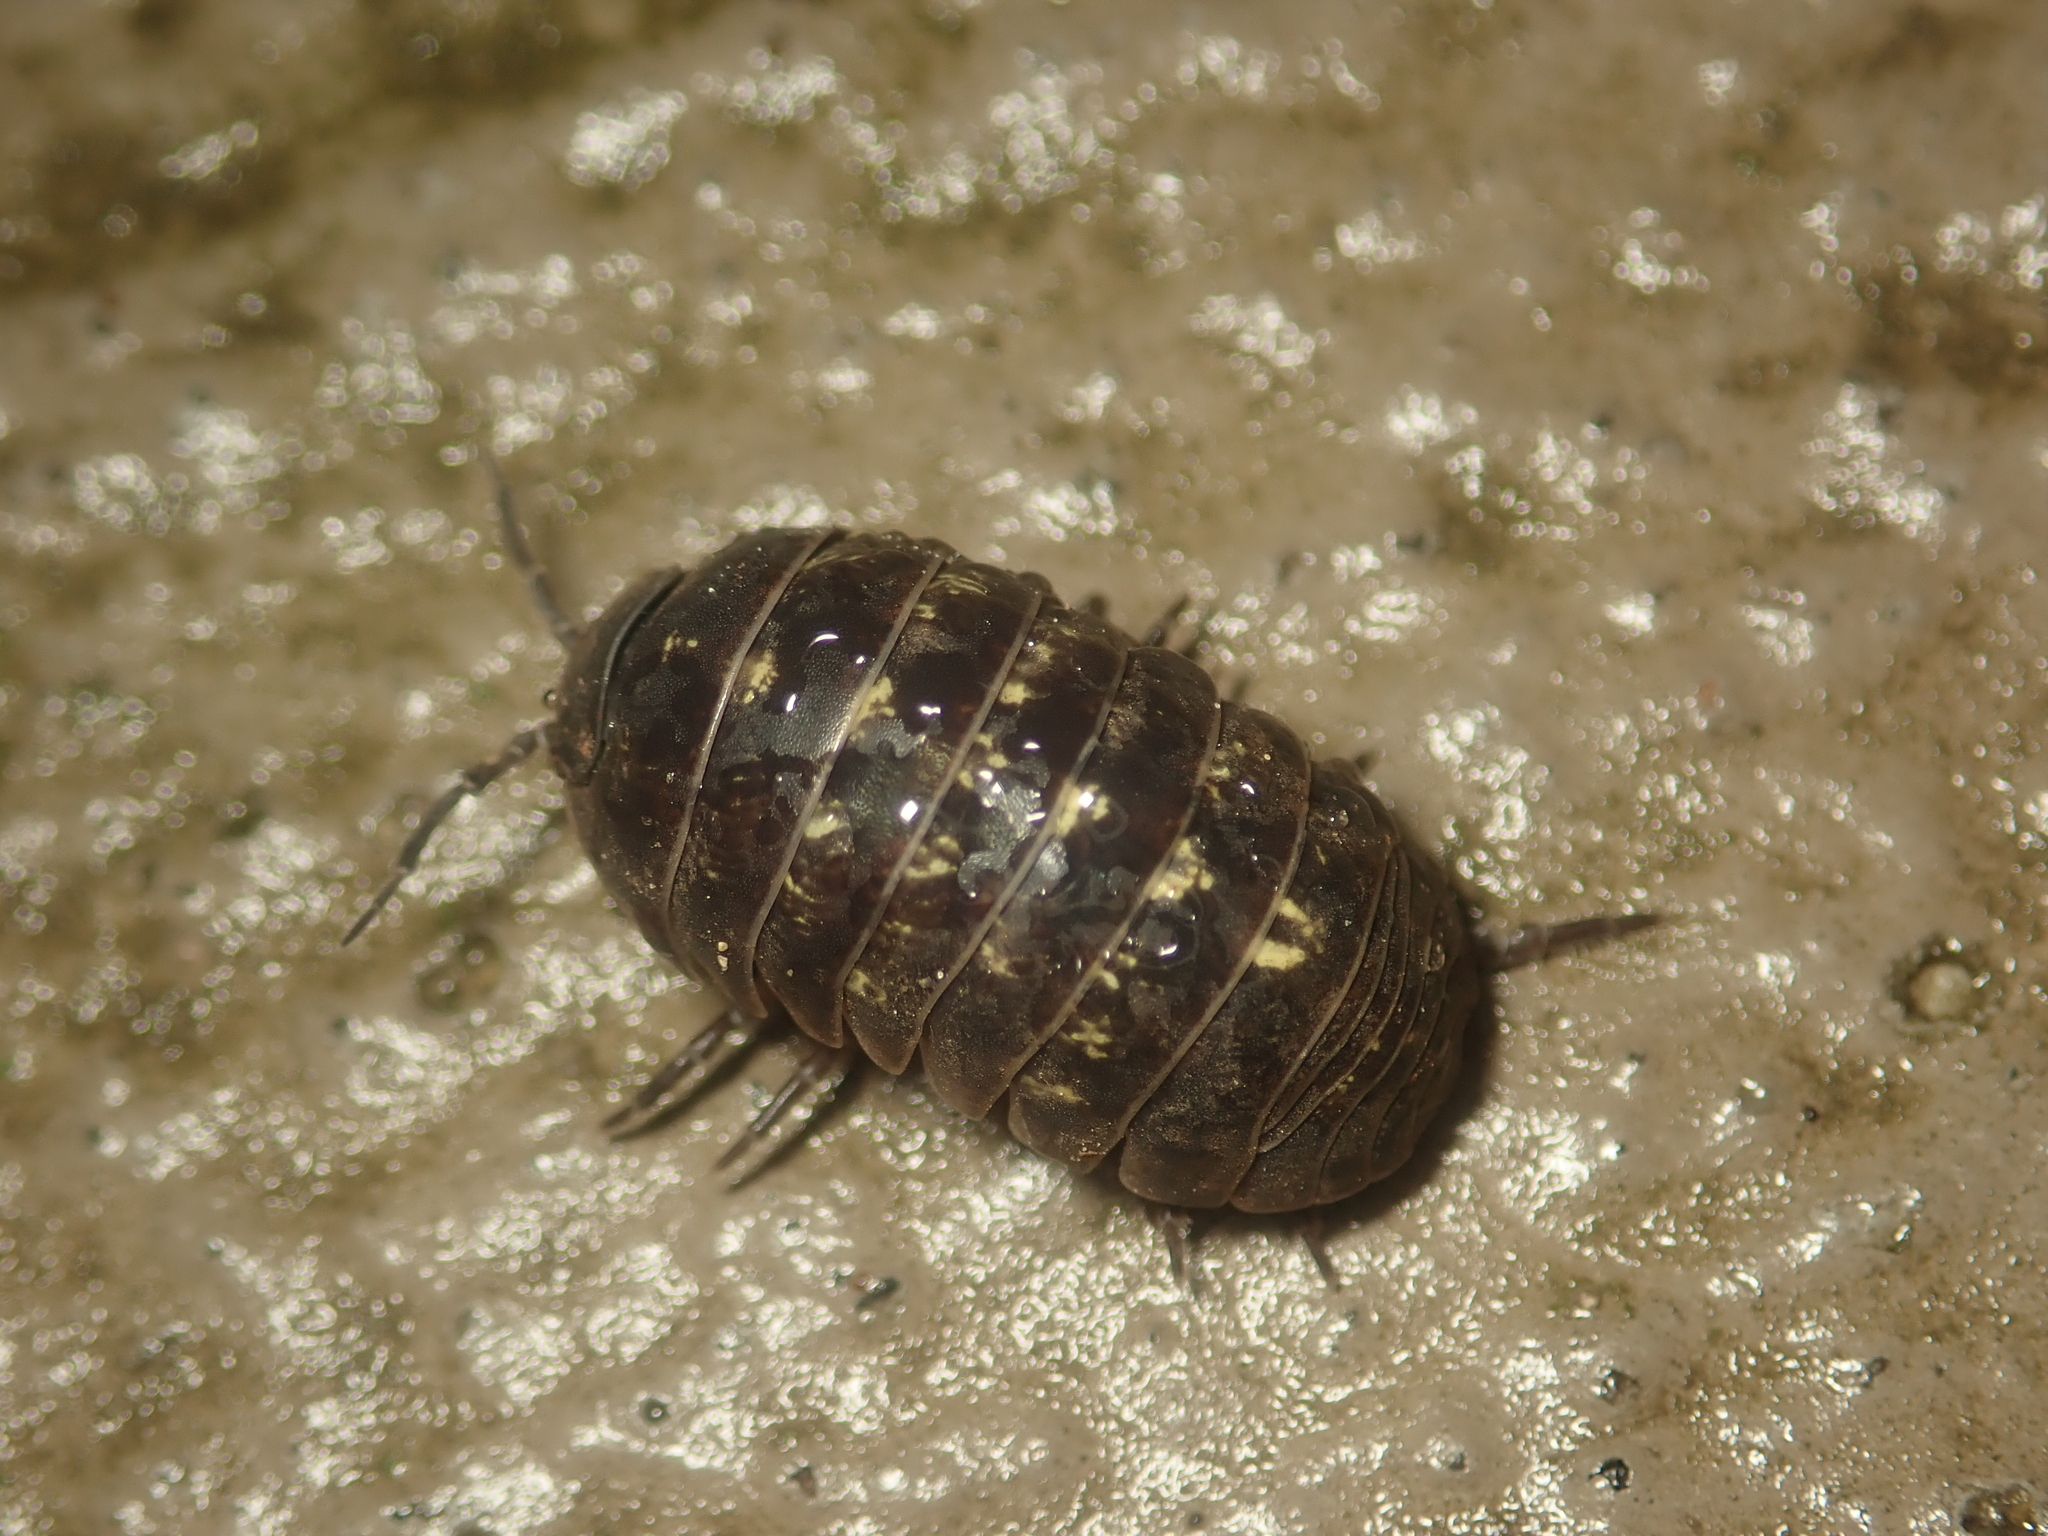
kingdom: Animalia
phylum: Arthropoda
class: Malacostraca
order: Isopoda
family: Armadillidiidae
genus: Armadillidium
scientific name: Armadillidium vulgare
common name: Common pill woodlouse
